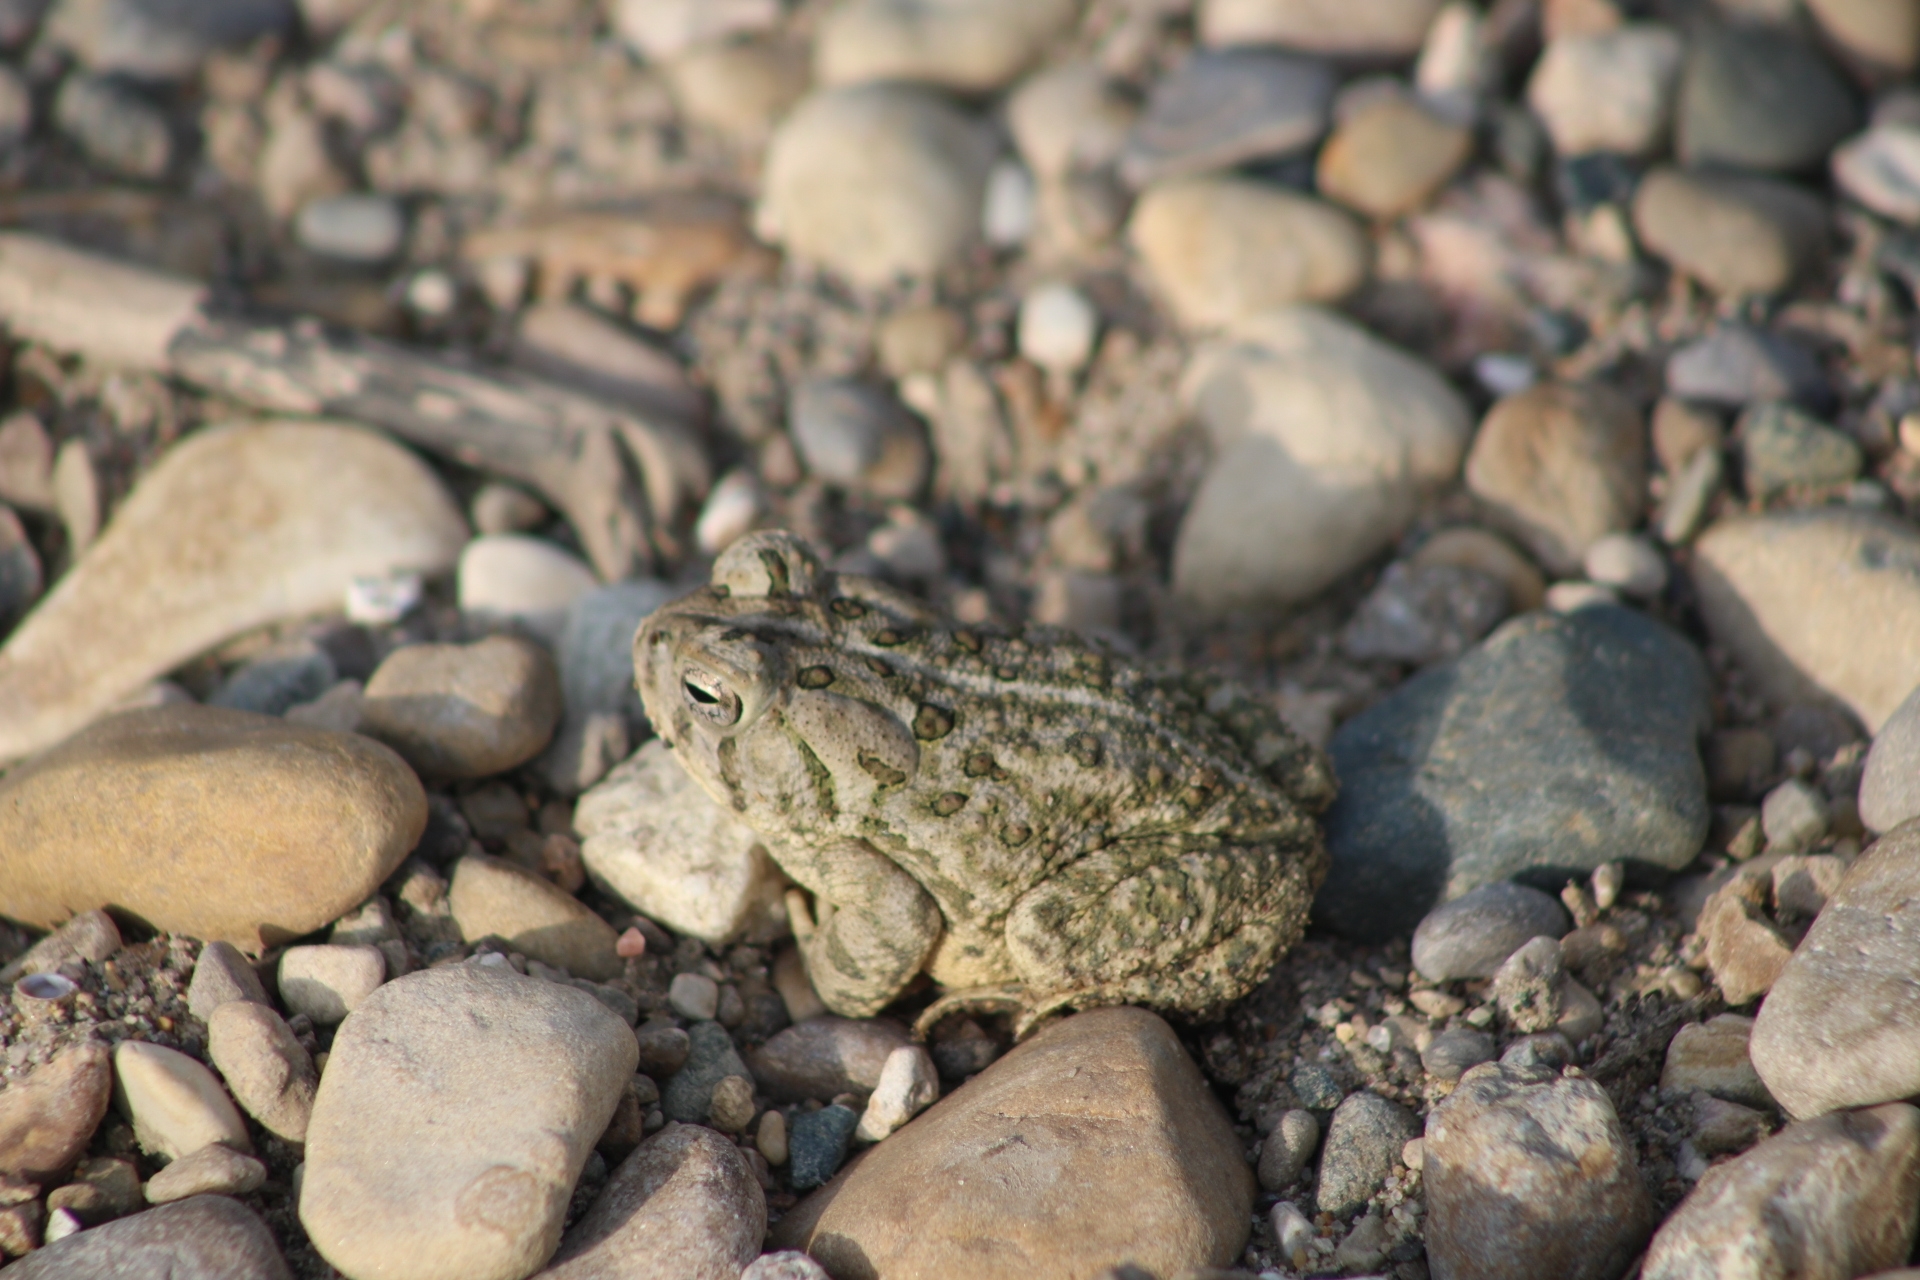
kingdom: Animalia
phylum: Chordata
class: Amphibia
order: Anura
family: Bufonidae
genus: Anaxyrus
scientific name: Anaxyrus
